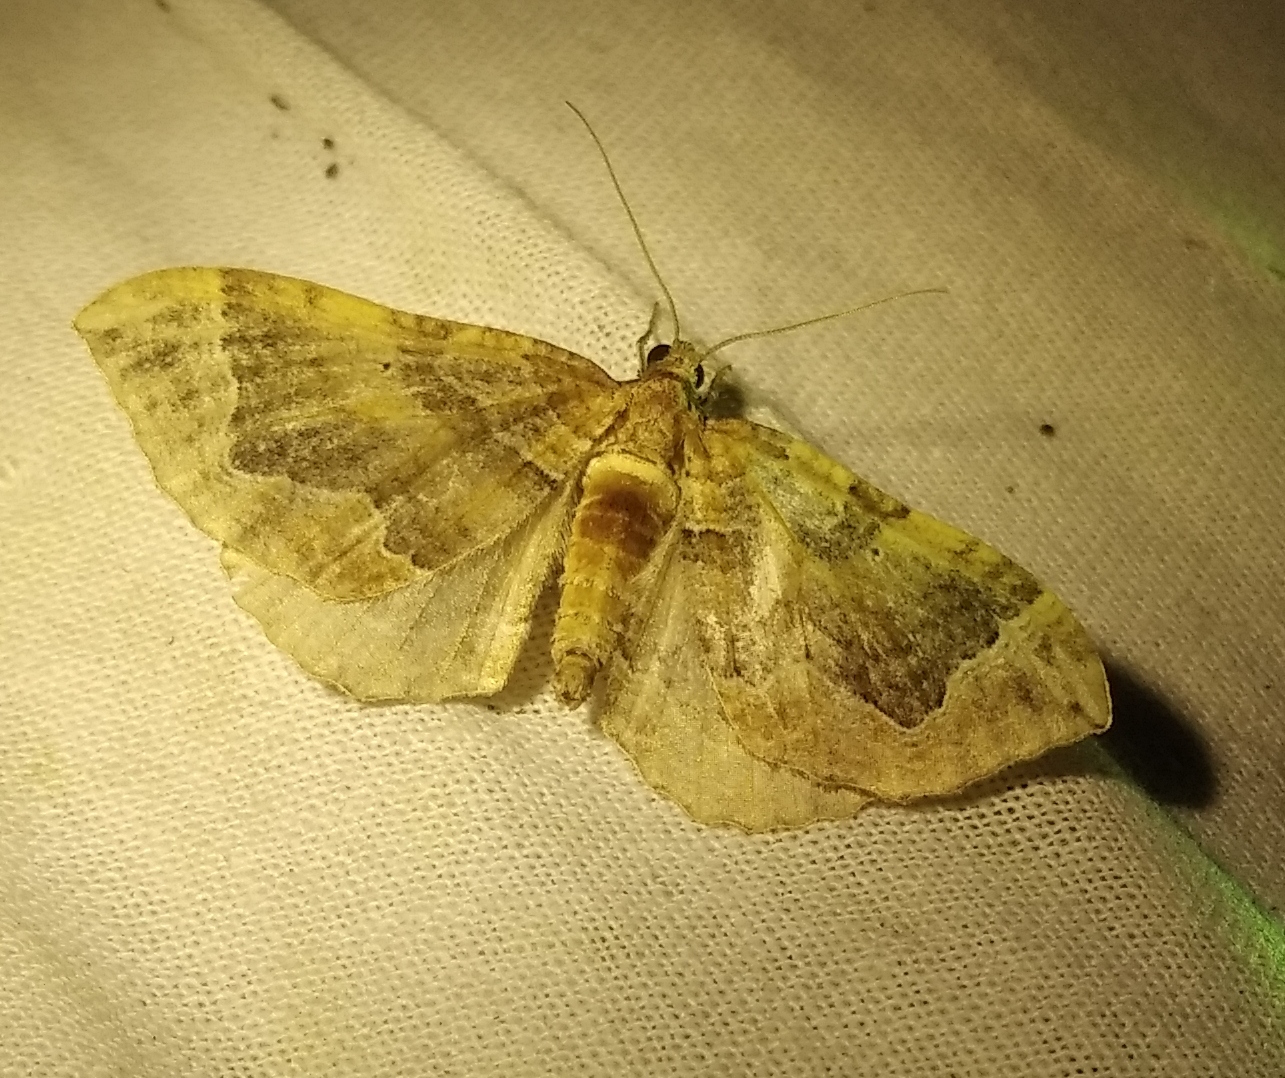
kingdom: Animalia
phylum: Arthropoda
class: Insecta
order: Lepidoptera
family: Geometridae
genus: Pelurga
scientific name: Pelurga comitata
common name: Dark spinach
